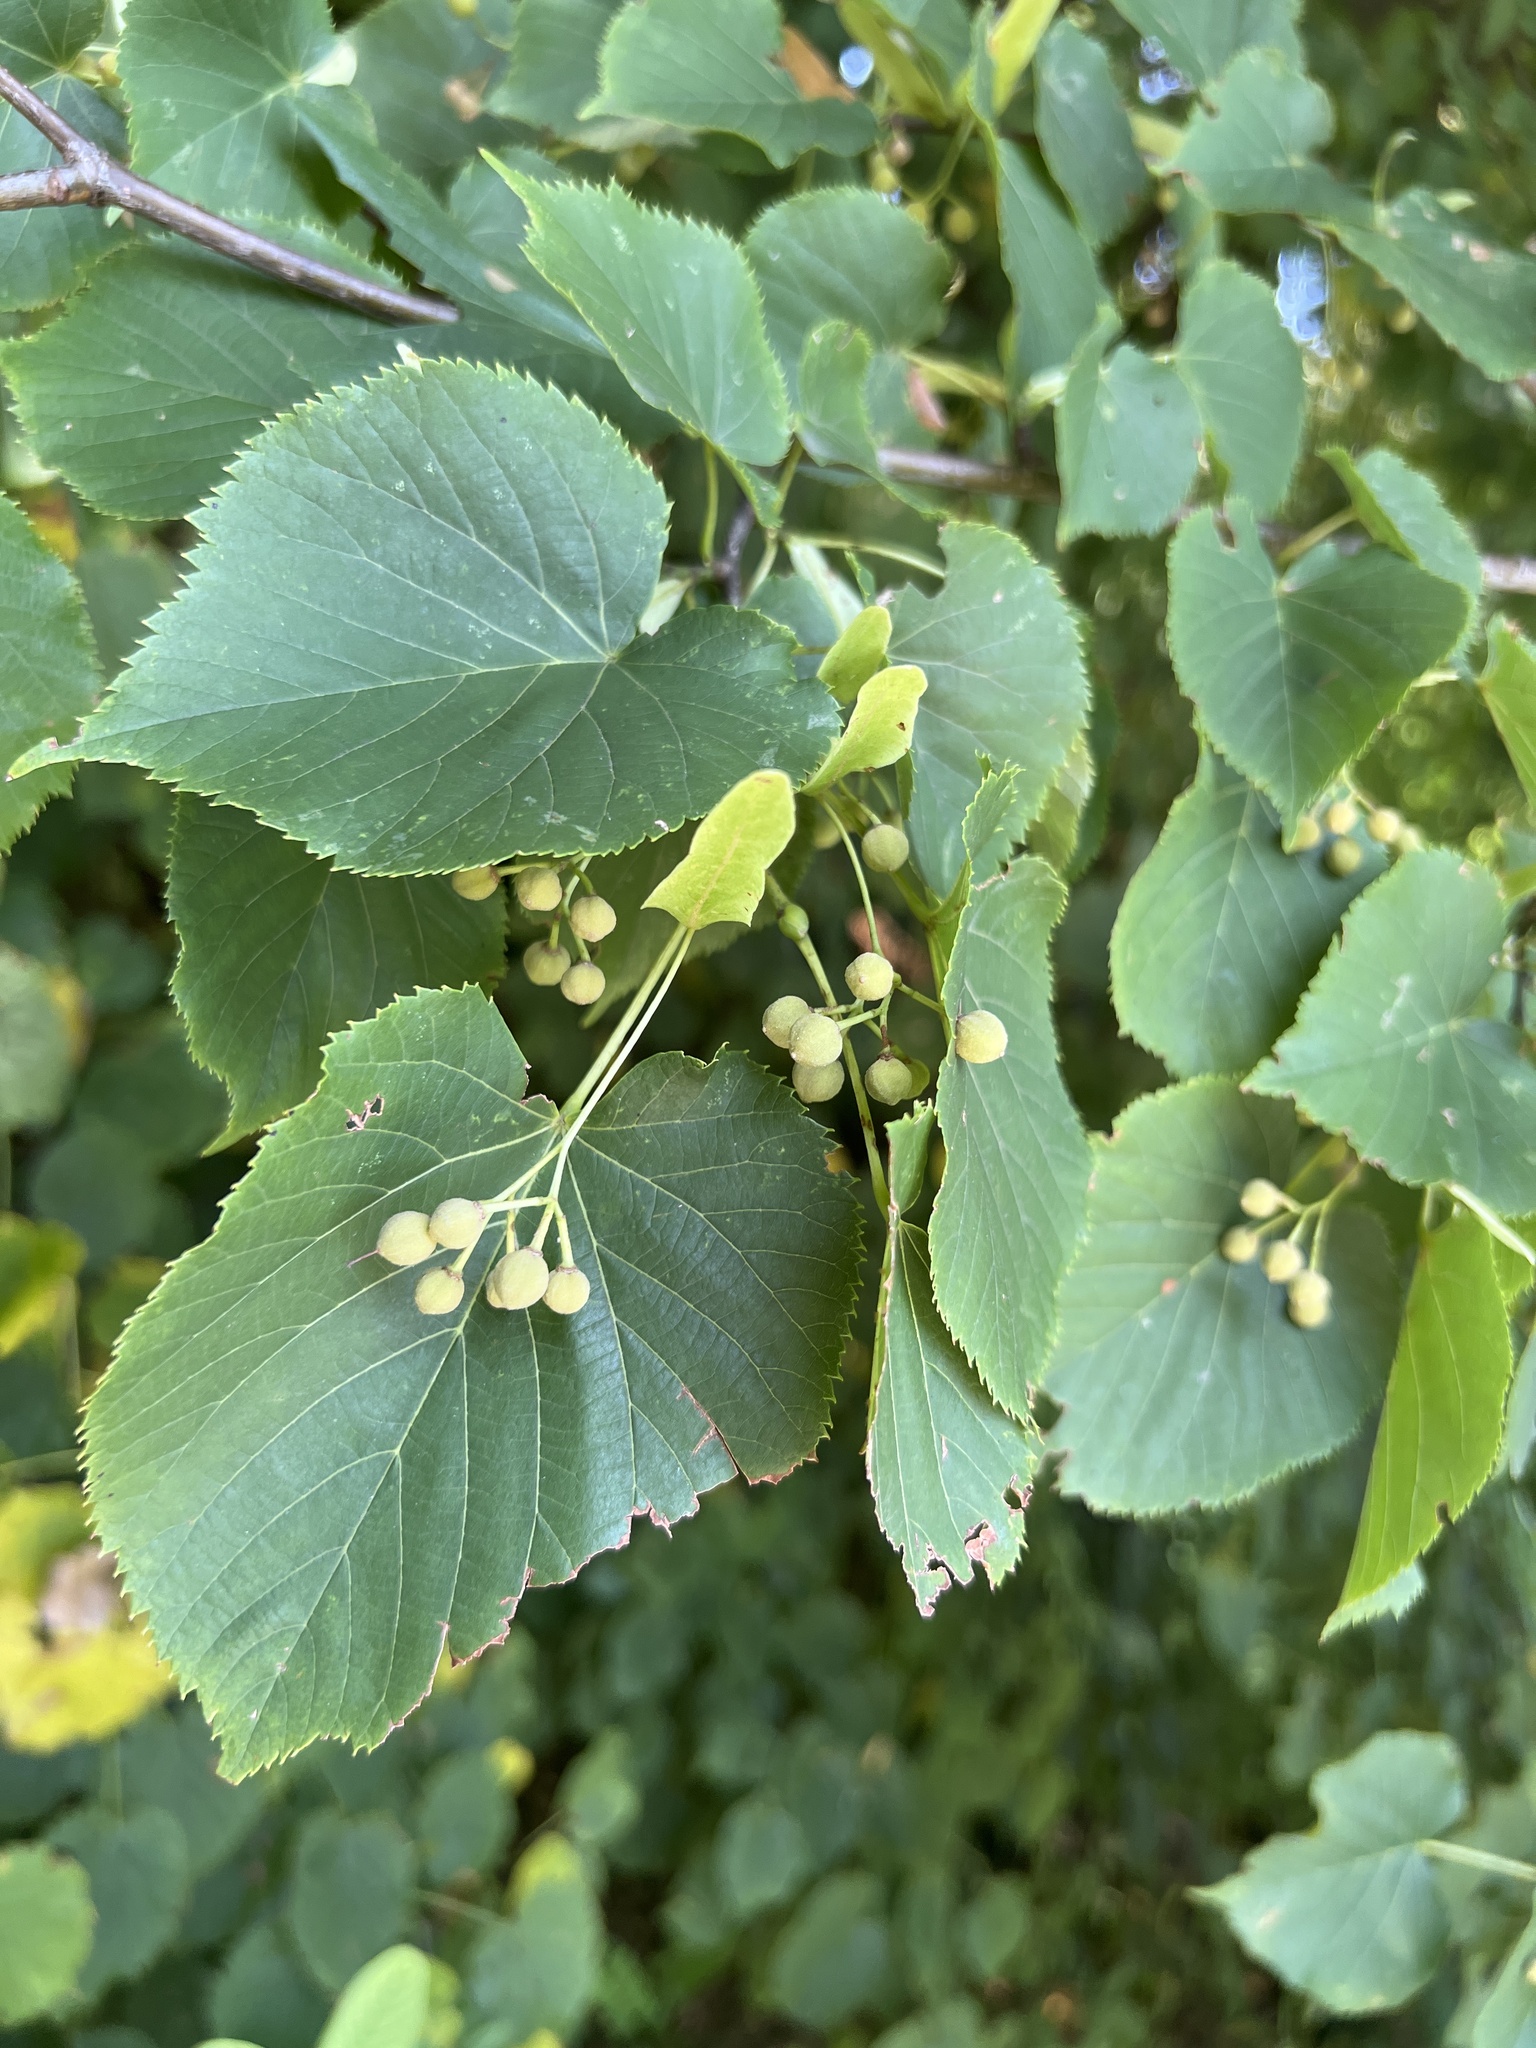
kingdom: Plantae
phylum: Tracheophyta
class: Magnoliopsida
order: Malvales
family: Malvaceae
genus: Tilia
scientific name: Tilia cordata
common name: Small-leaved lime
